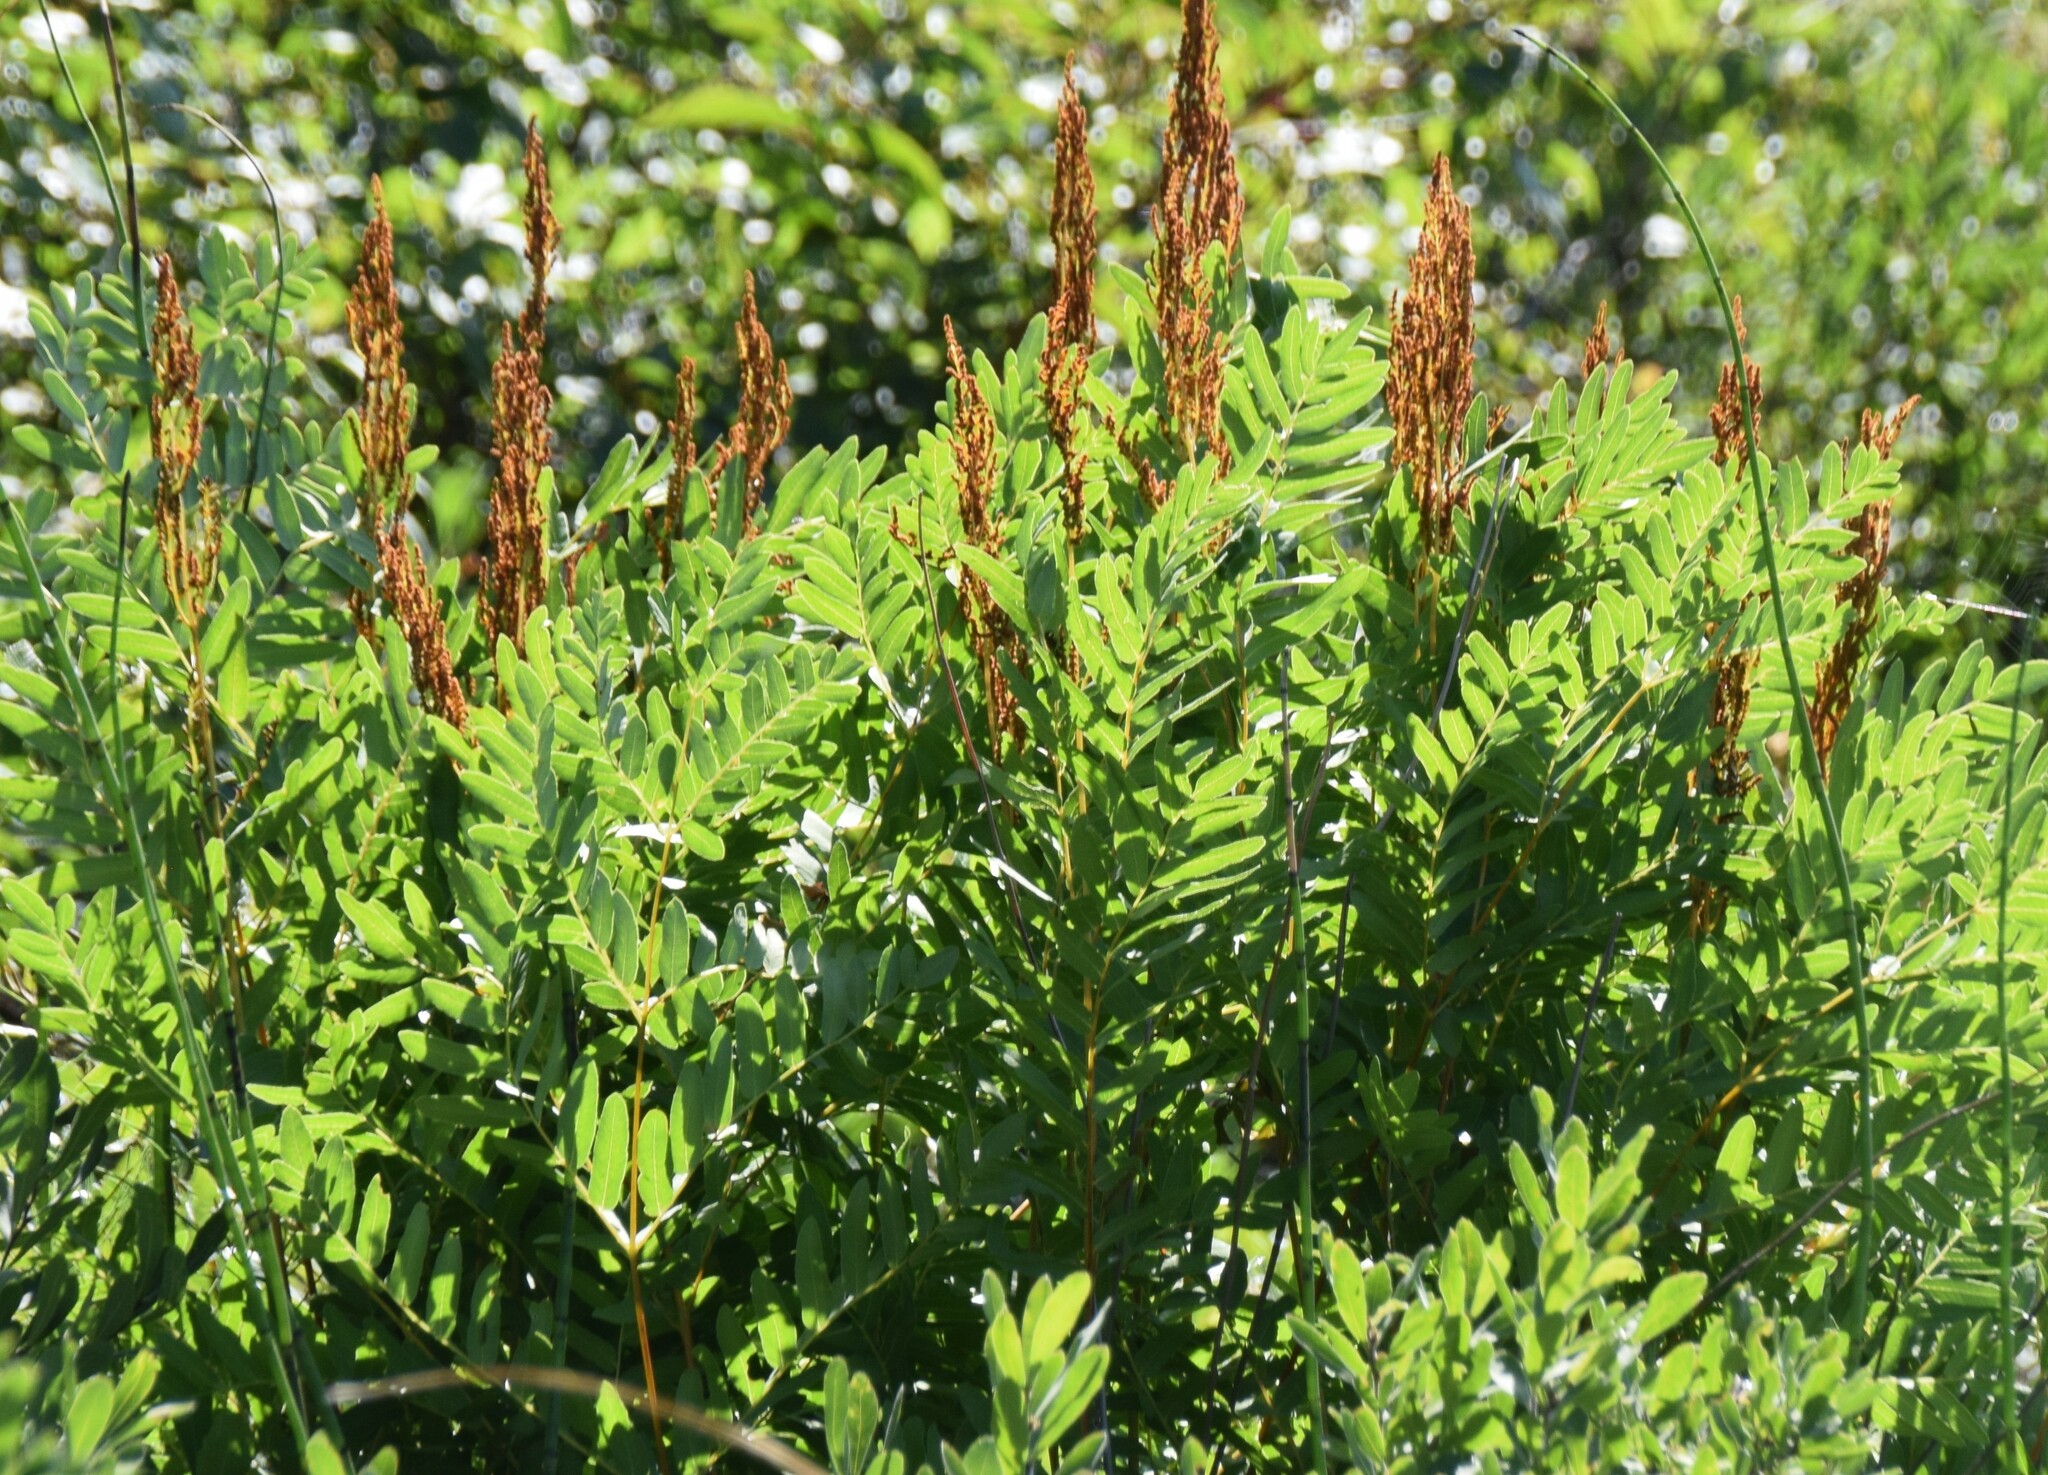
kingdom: Plantae
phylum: Tracheophyta
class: Polypodiopsida
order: Osmundales
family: Osmundaceae
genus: Osmunda
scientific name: Osmunda spectabilis
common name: American royal fern
